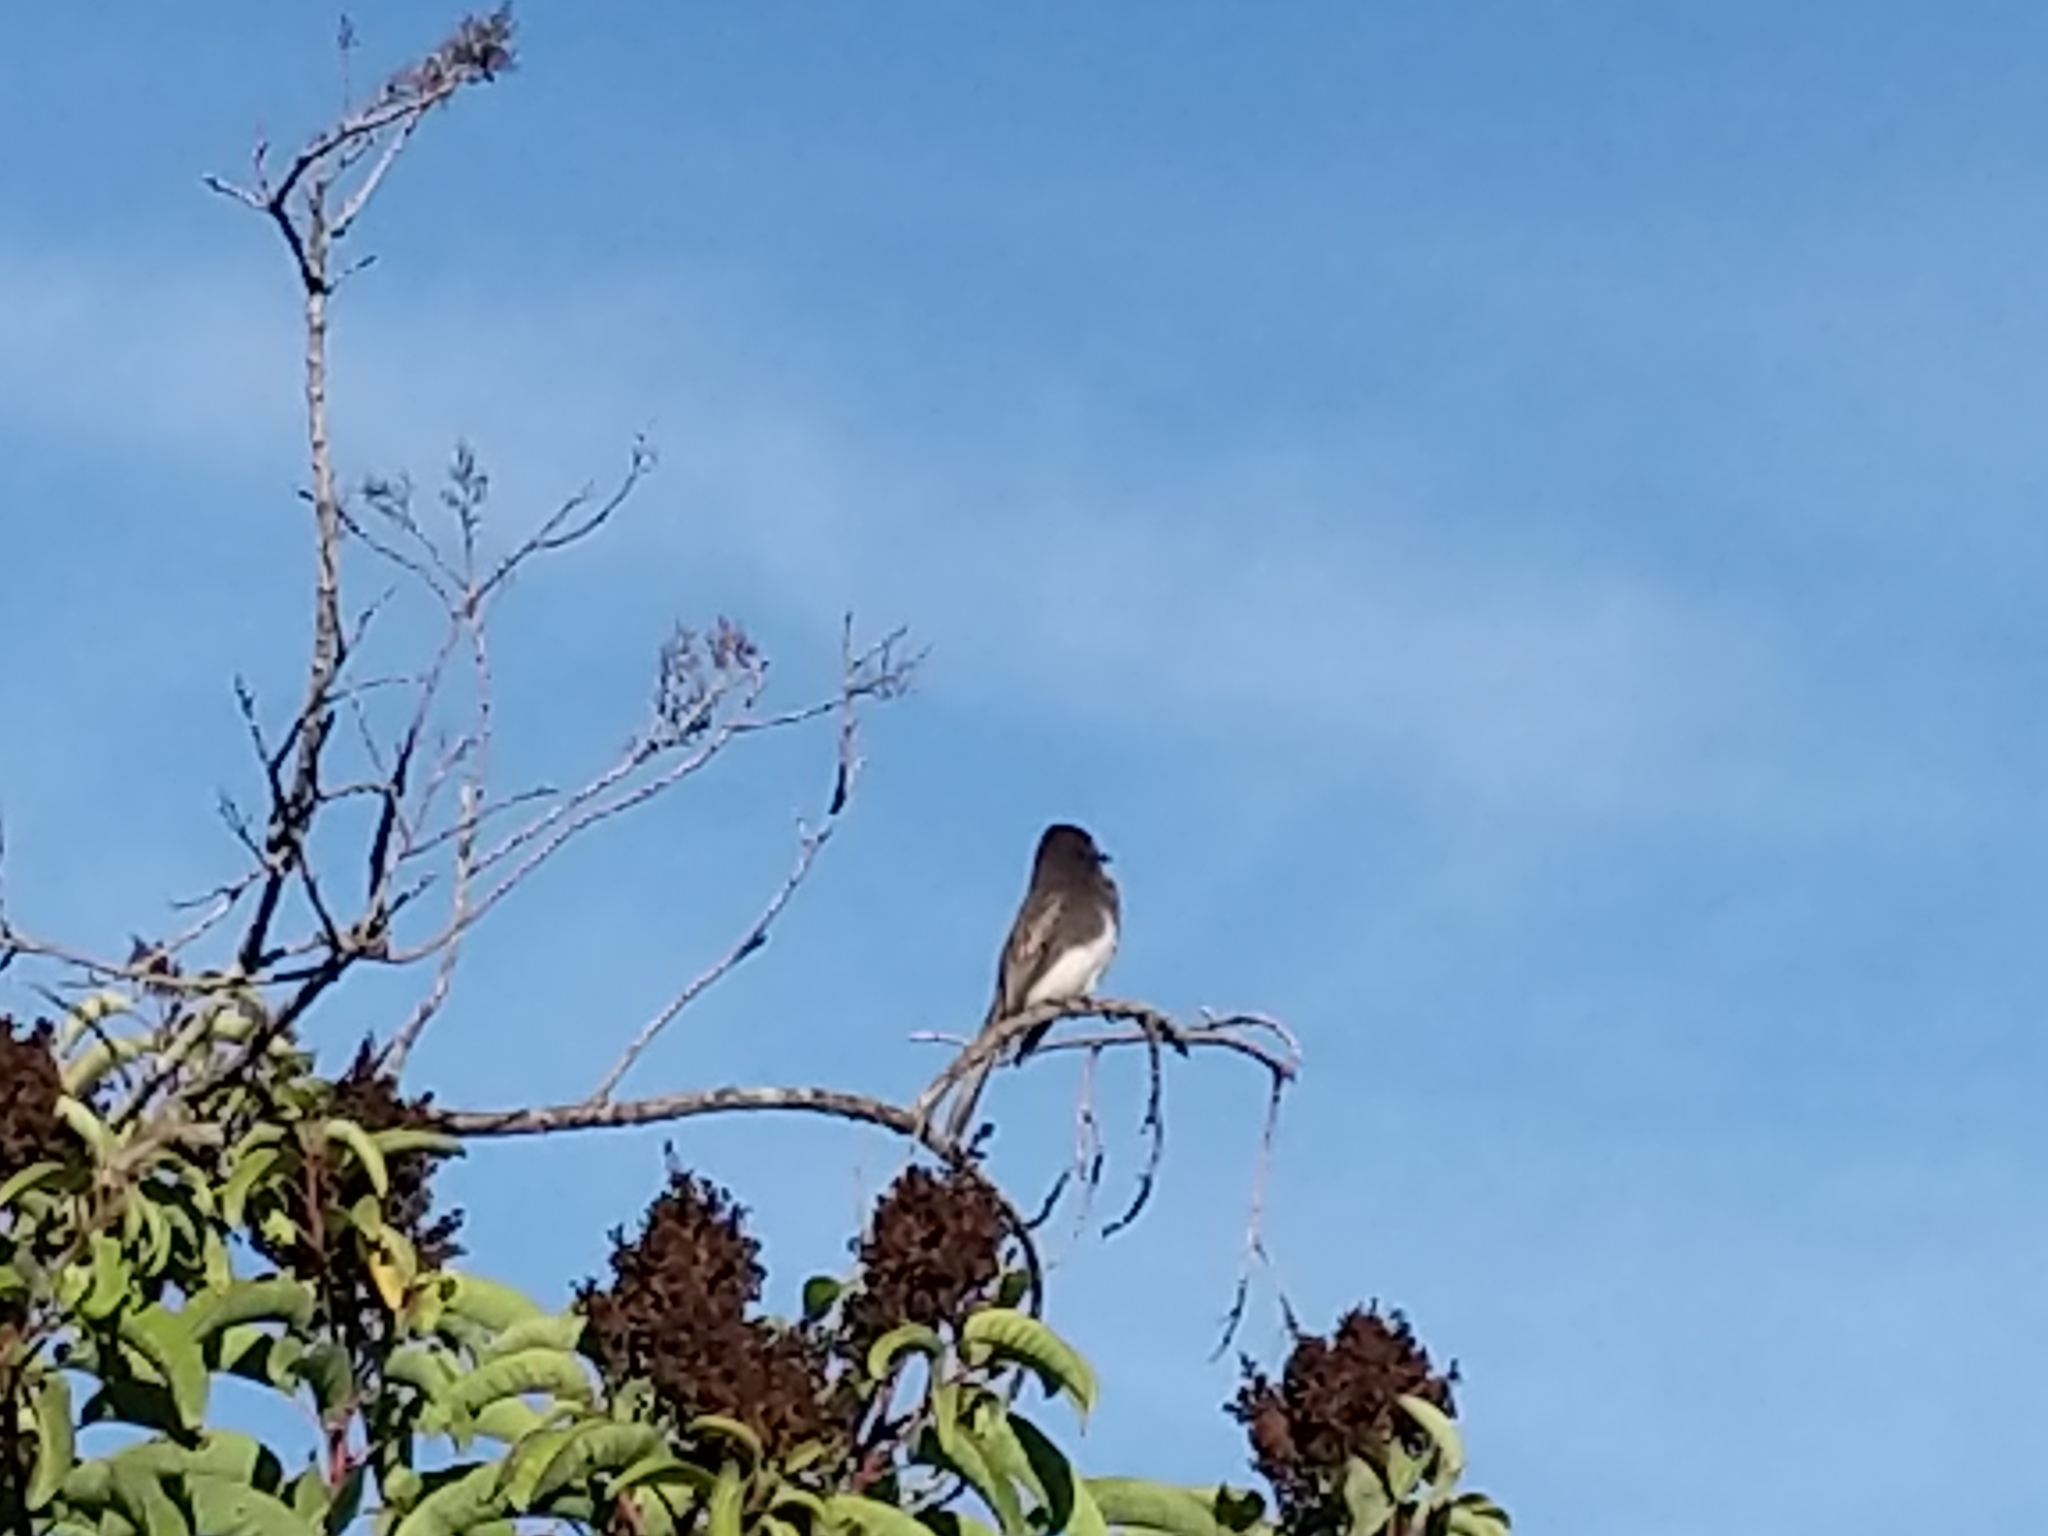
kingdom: Animalia
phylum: Chordata
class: Aves
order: Passeriformes
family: Tyrannidae
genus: Sayornis
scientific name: Sayornis nigricans
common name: Black phoebe
